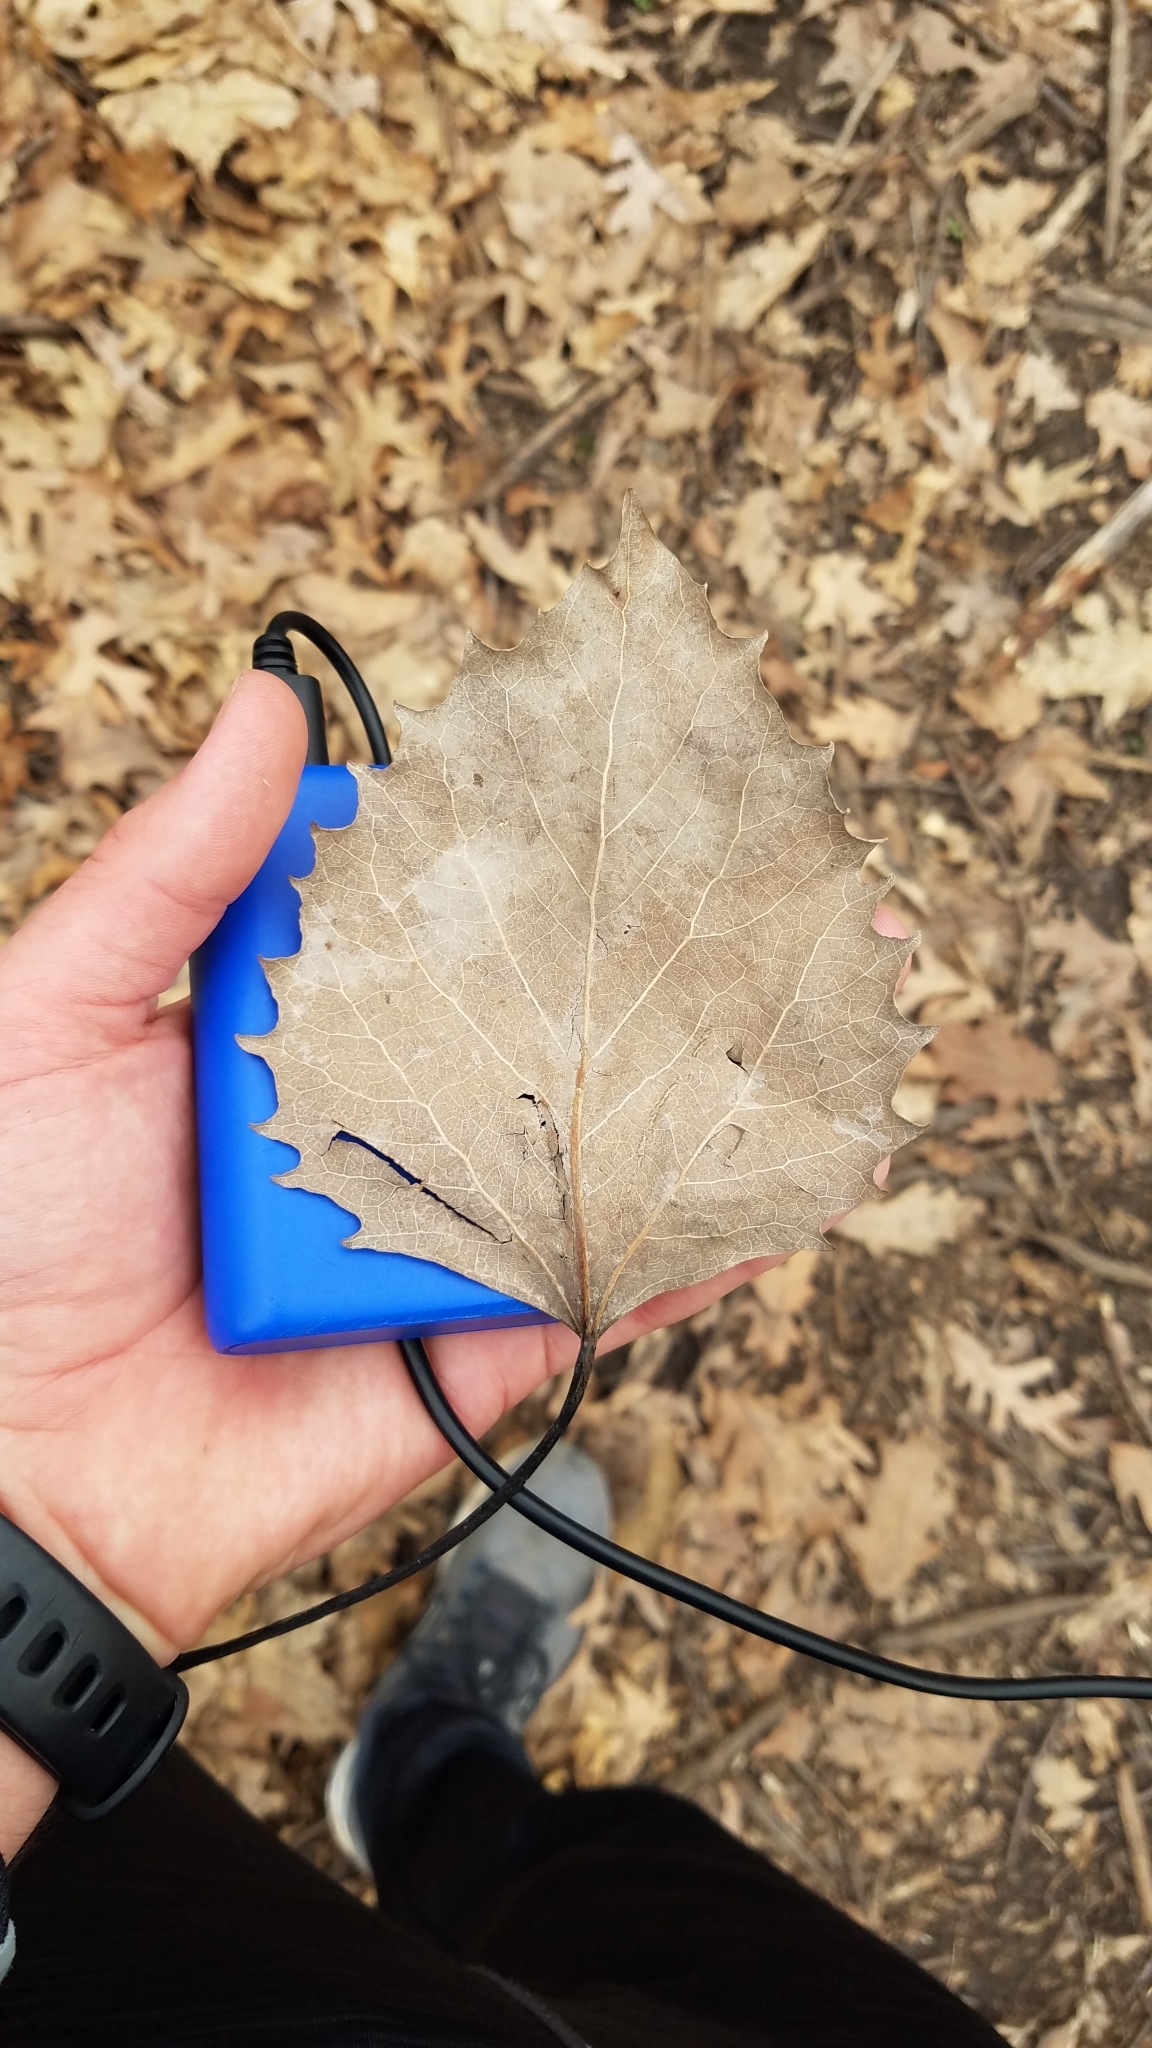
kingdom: Plantae
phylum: Tracheophyta
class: Magnoliopsida
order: Malpighiales
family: Salicaceae
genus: Populus
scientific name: Populus grandidentata
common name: Bigtooth aspen
